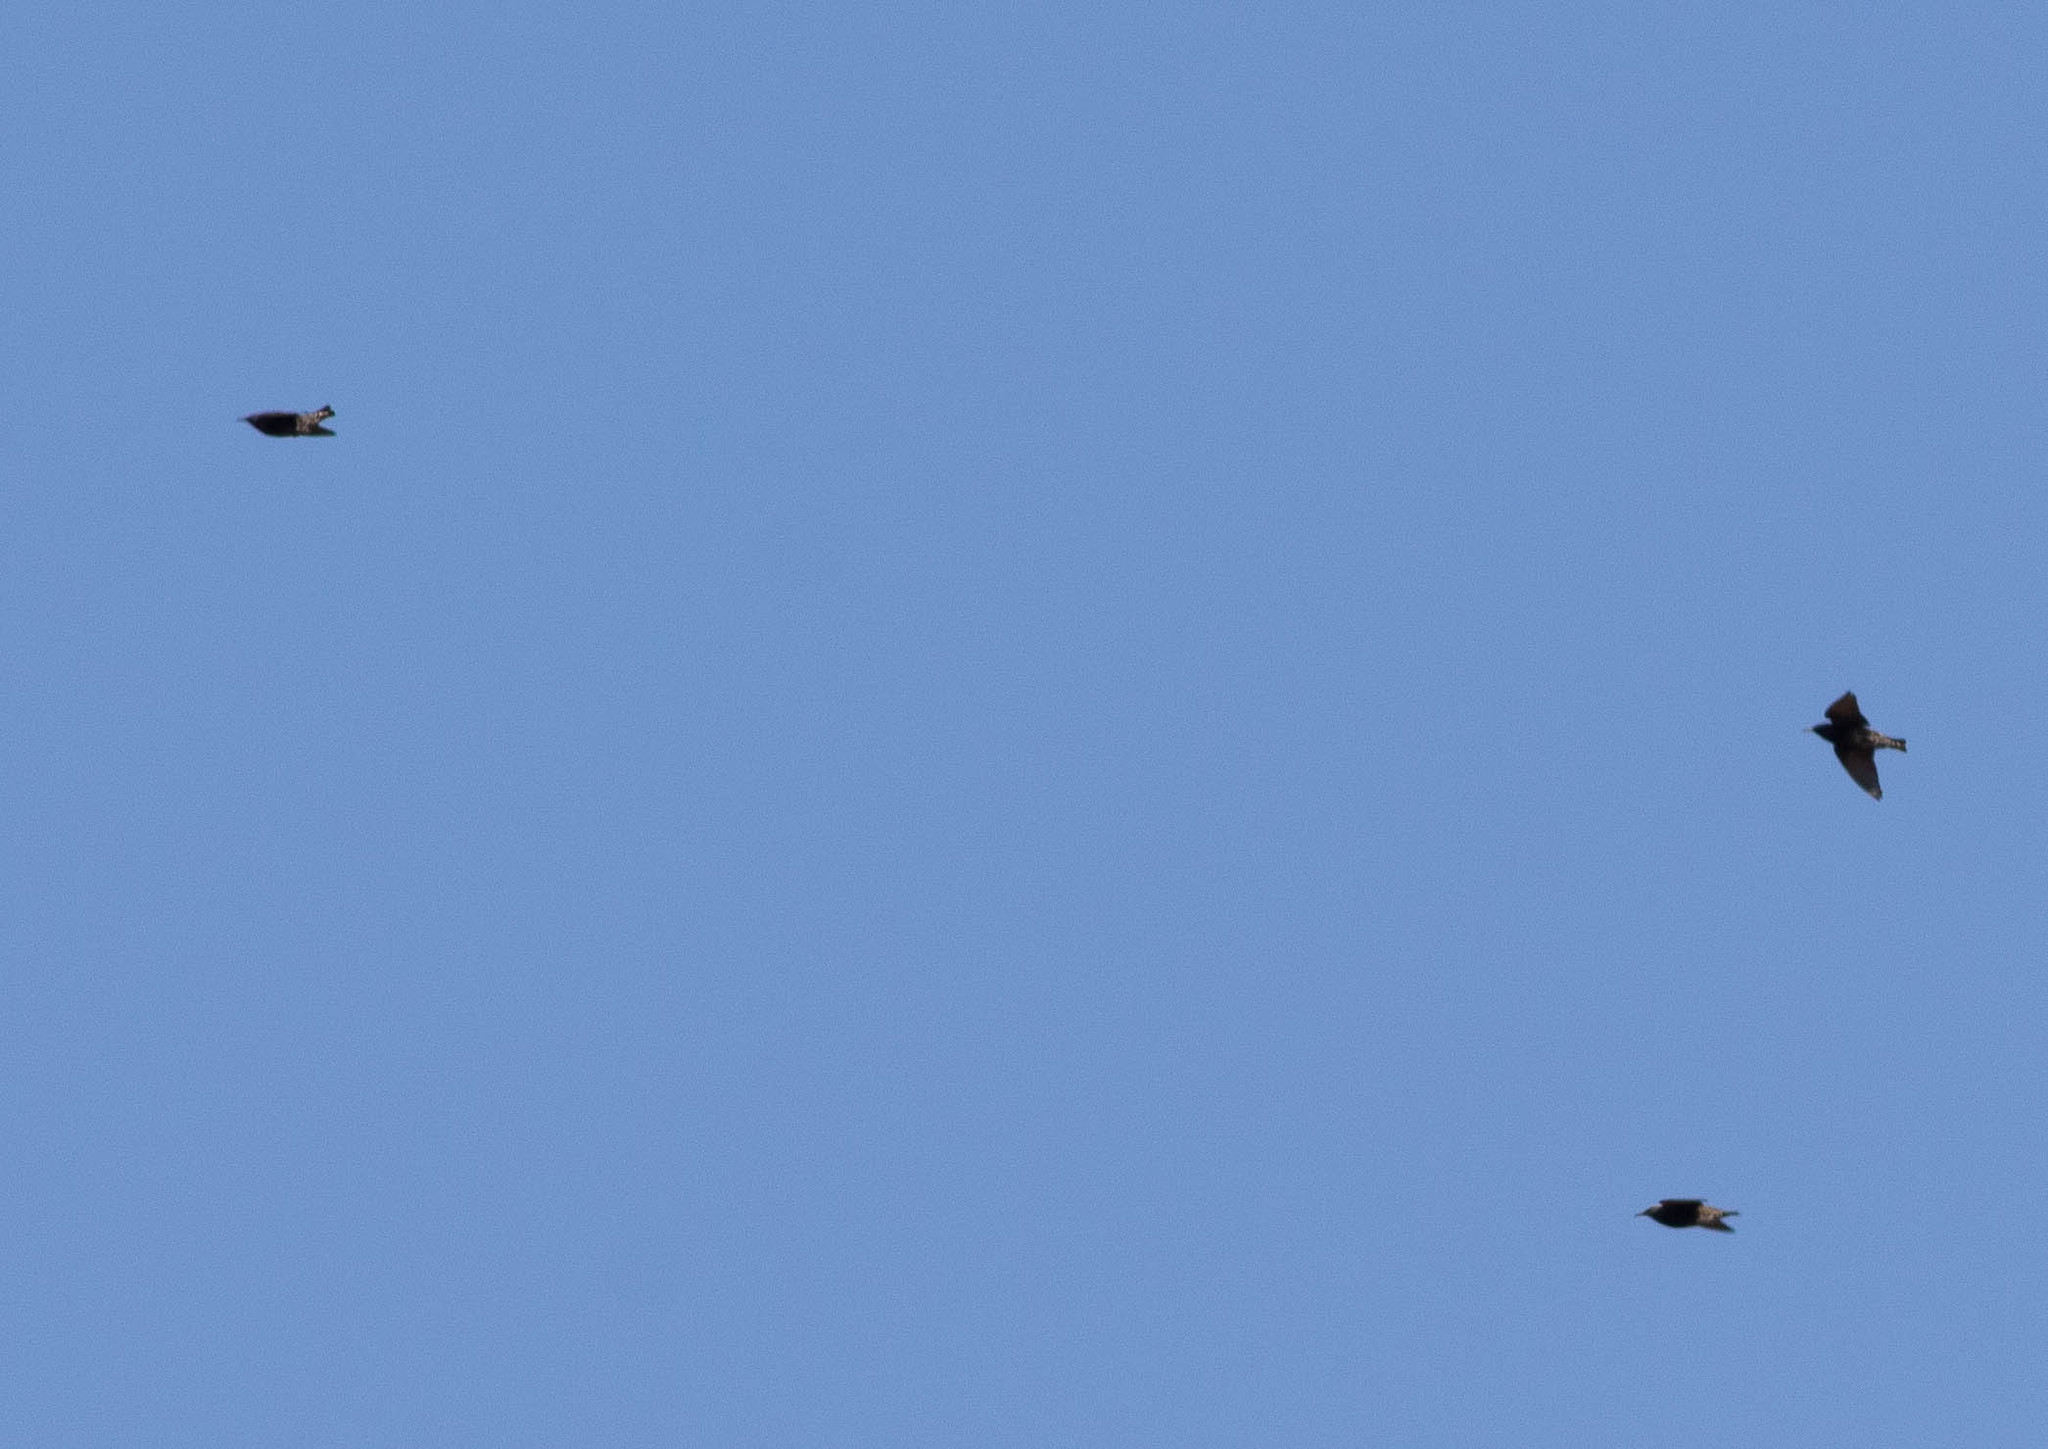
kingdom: Animalia
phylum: Chordata
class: Aves
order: Passeriformes
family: Sturnidae
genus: Sturnus
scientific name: Sturnus vulgaris
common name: Common starling
